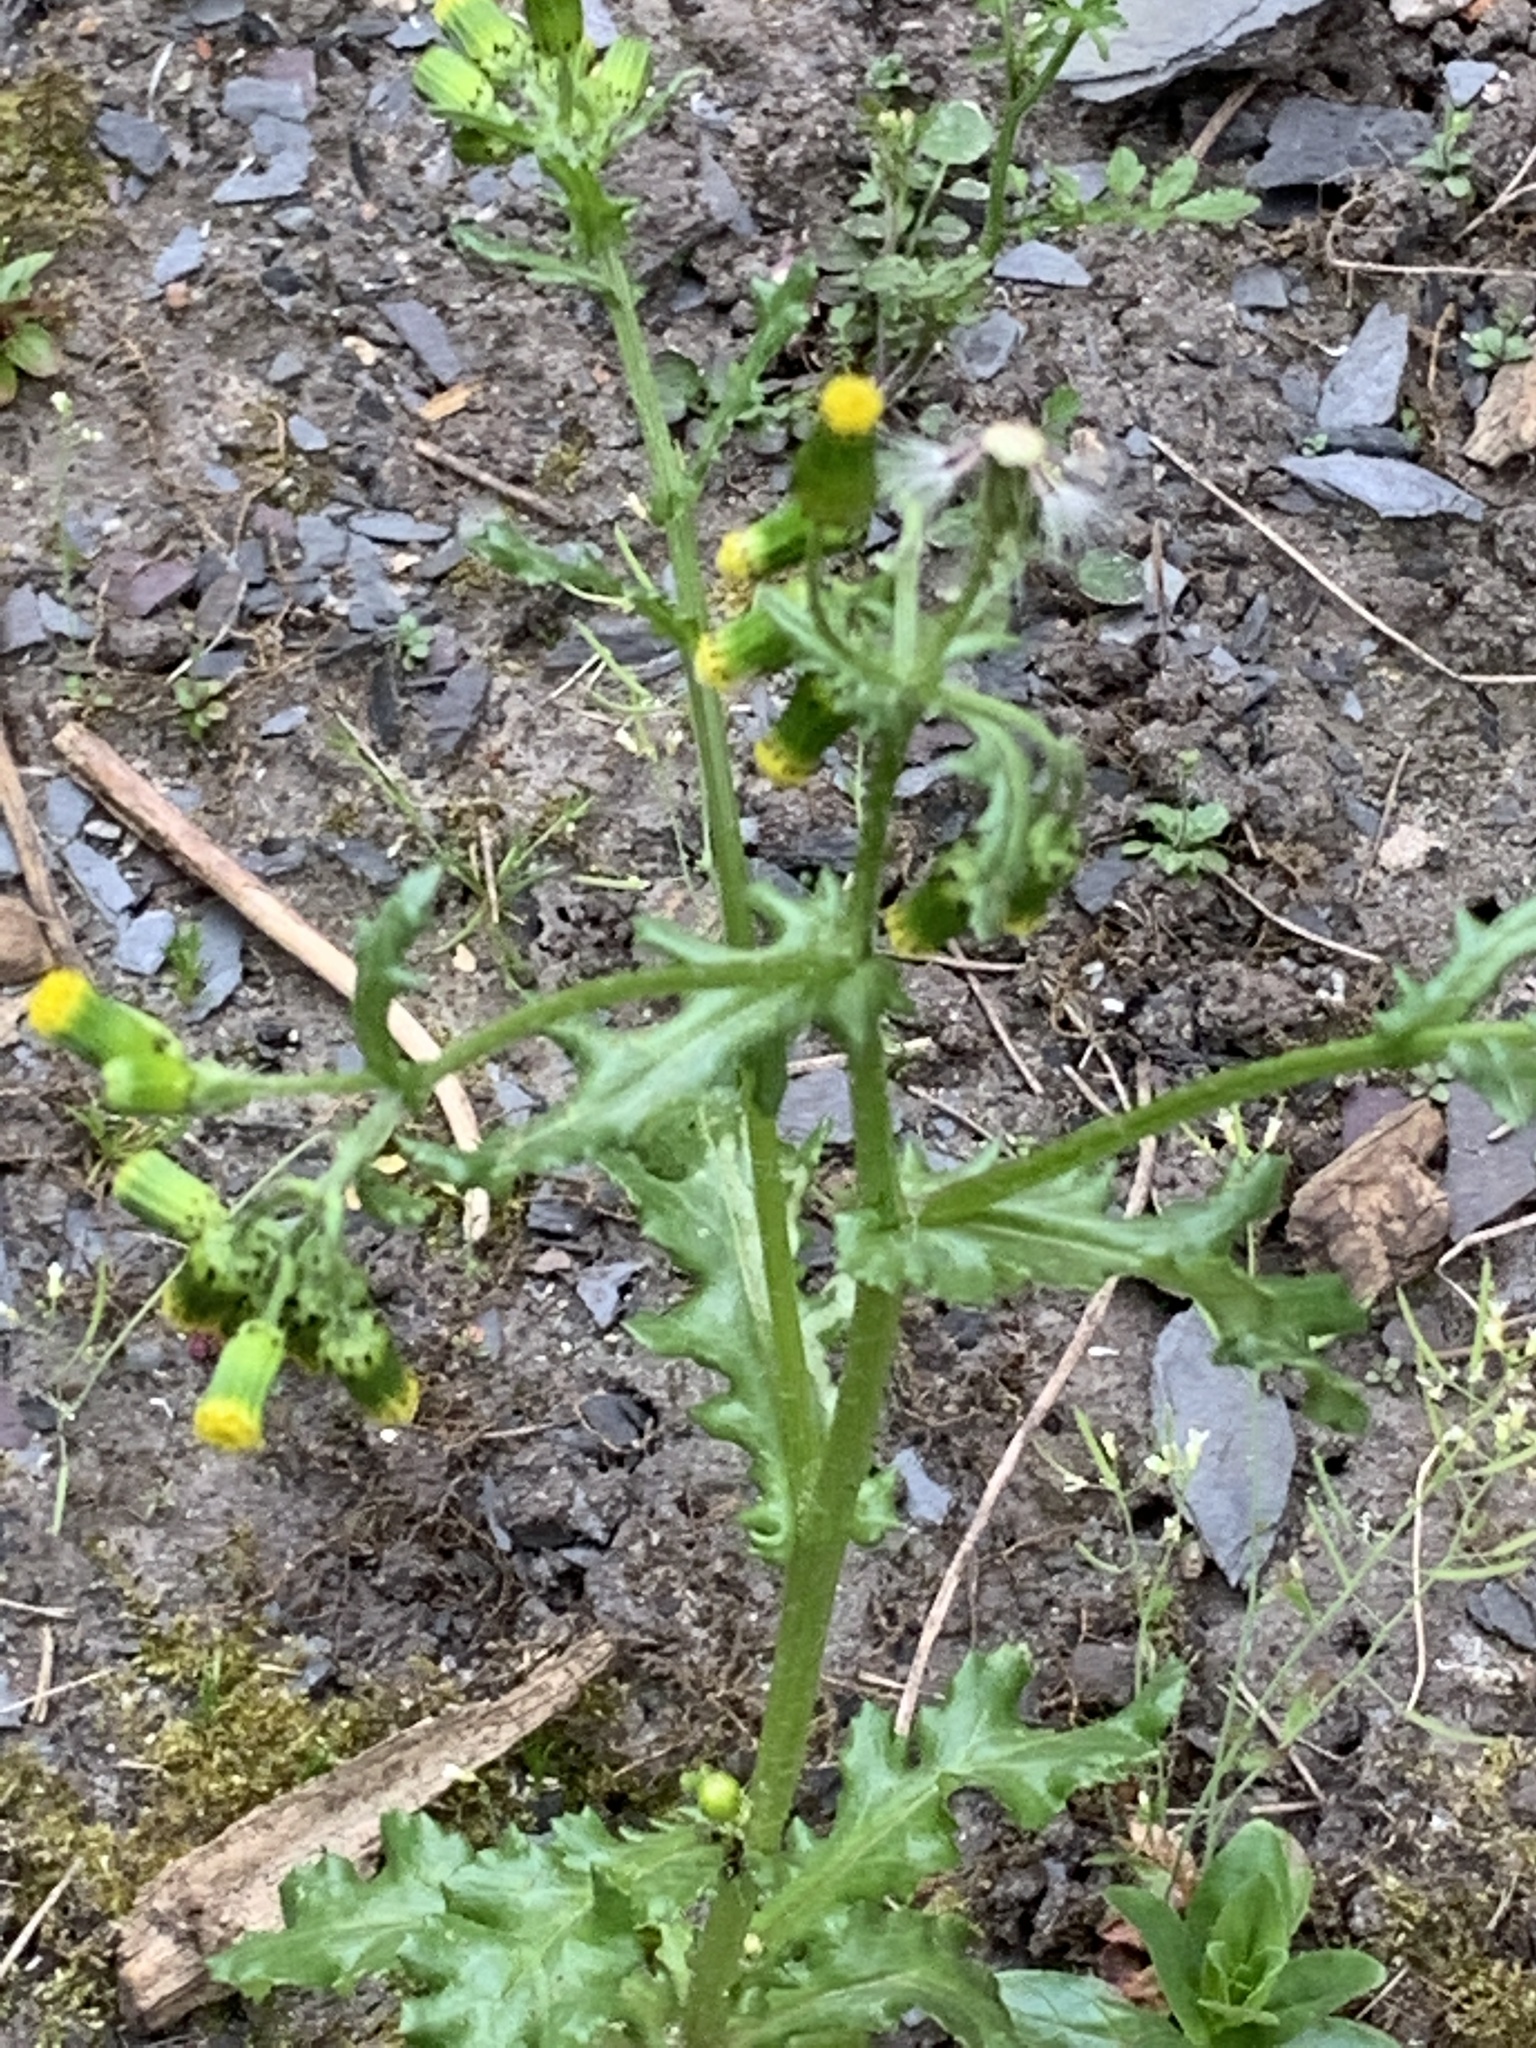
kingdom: Plantae
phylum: Tracheophyta
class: Magnoliopsida
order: Asterales
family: Asteraceae
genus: Senecio
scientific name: Senecio vulgaris
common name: Old-man-in-the-spring
